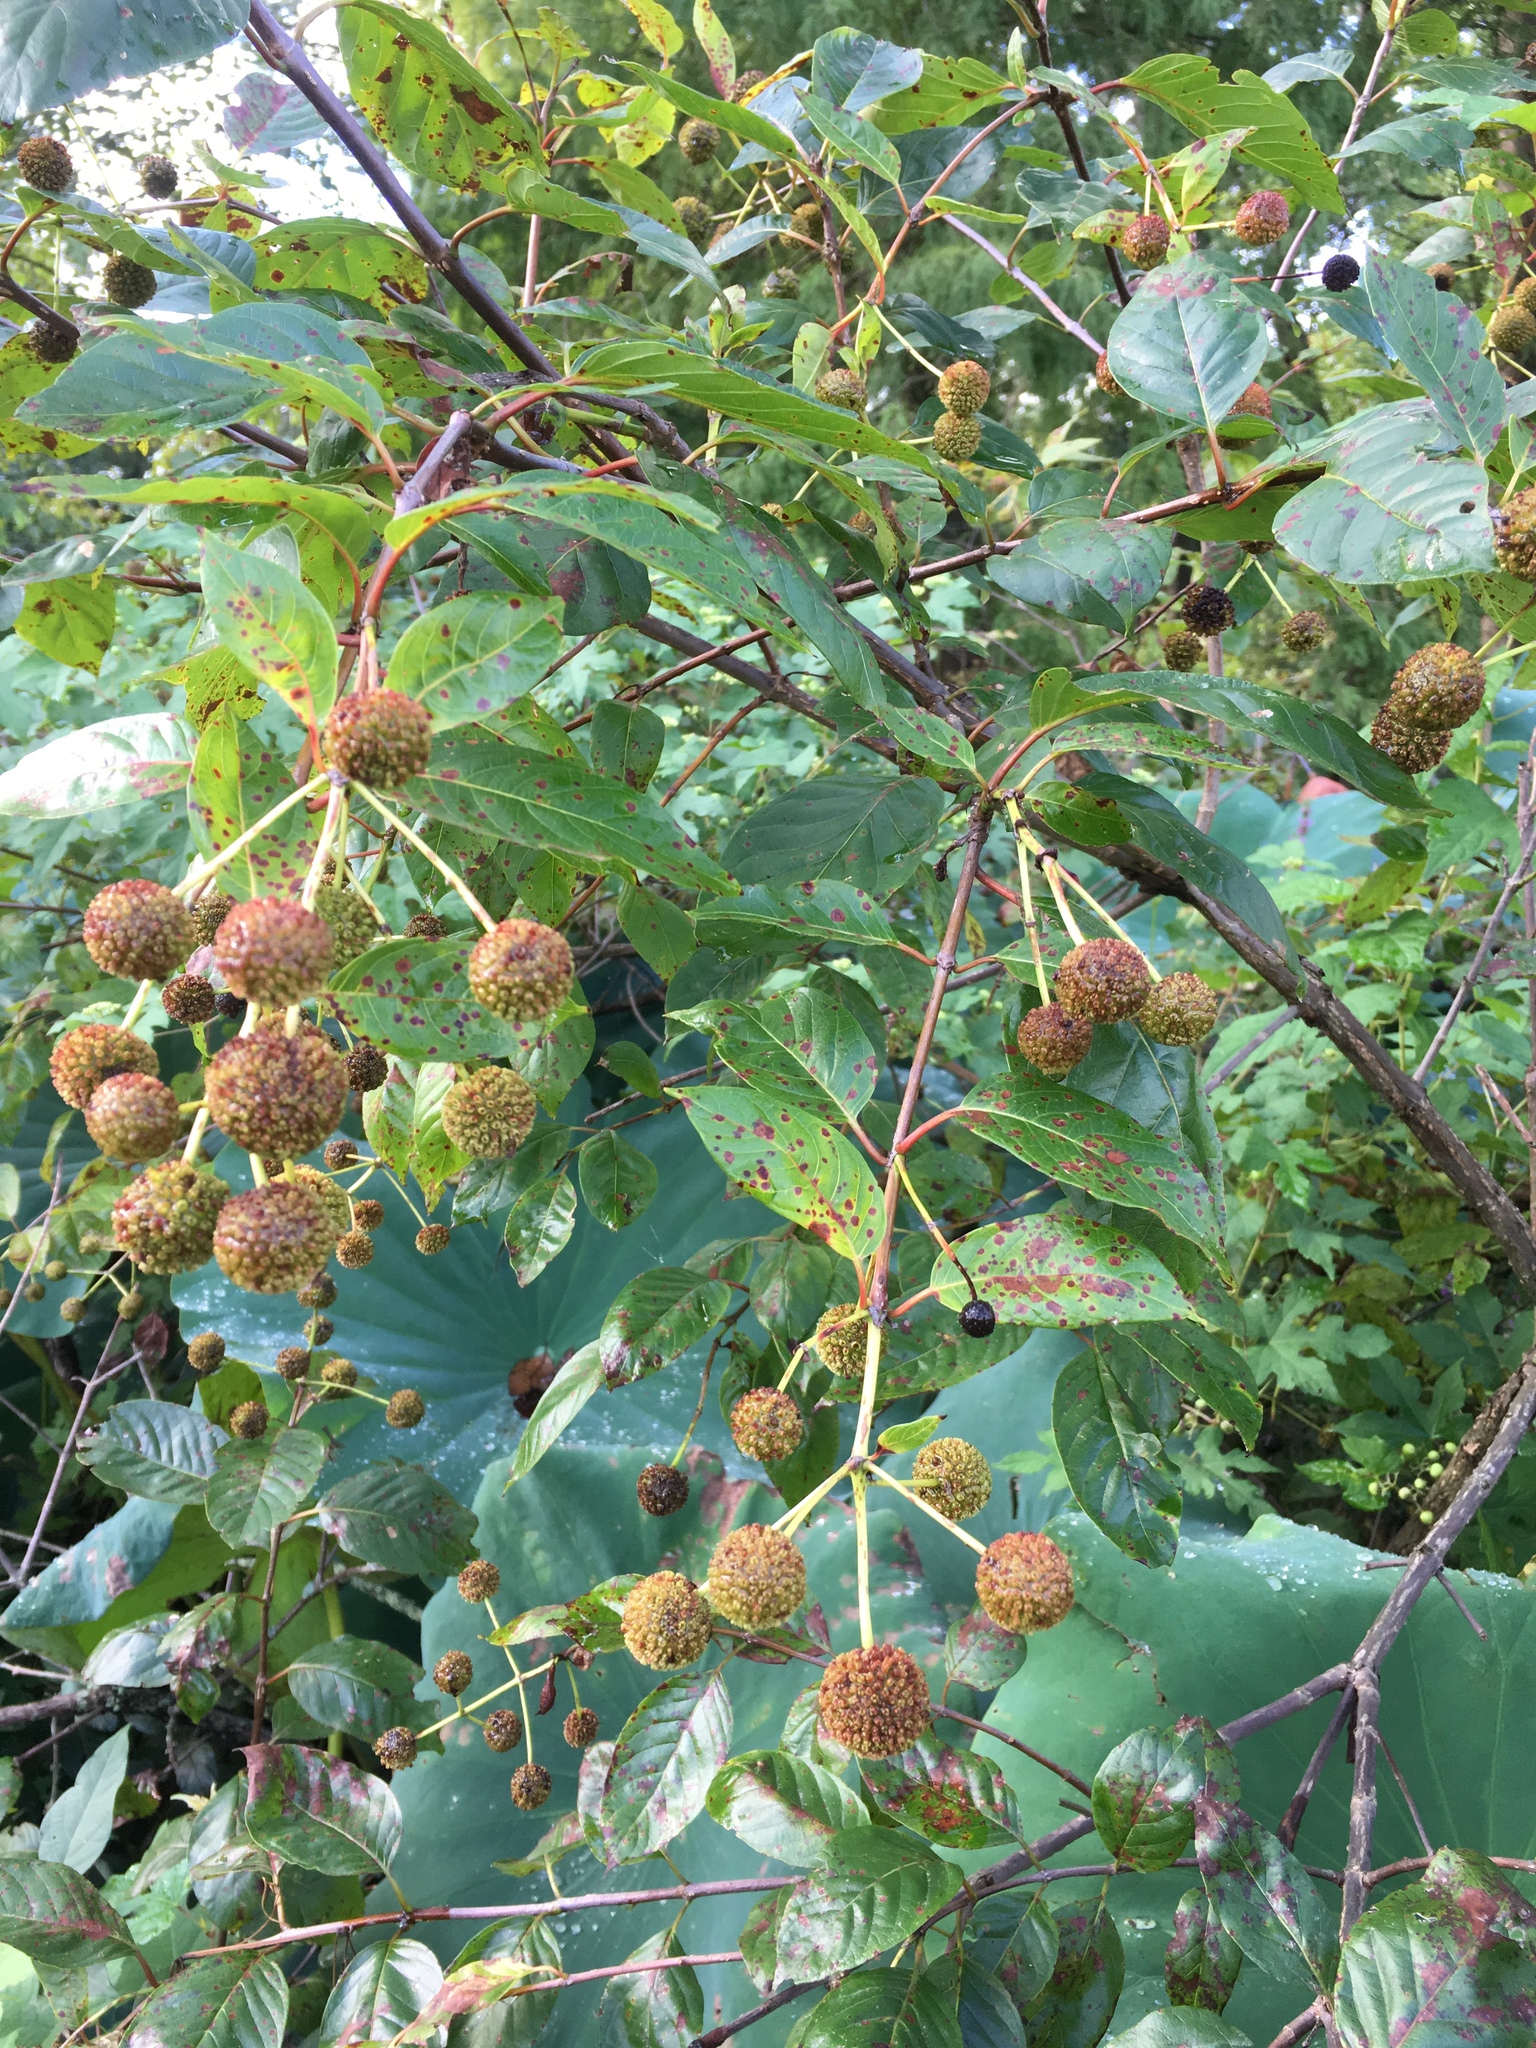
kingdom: Plantae
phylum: Tracheophyta
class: Magnoliopsida
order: Gentianales
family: Rubiaceae
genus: Cephalanthus
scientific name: Cephalanthus occidentalis
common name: Button-willow
